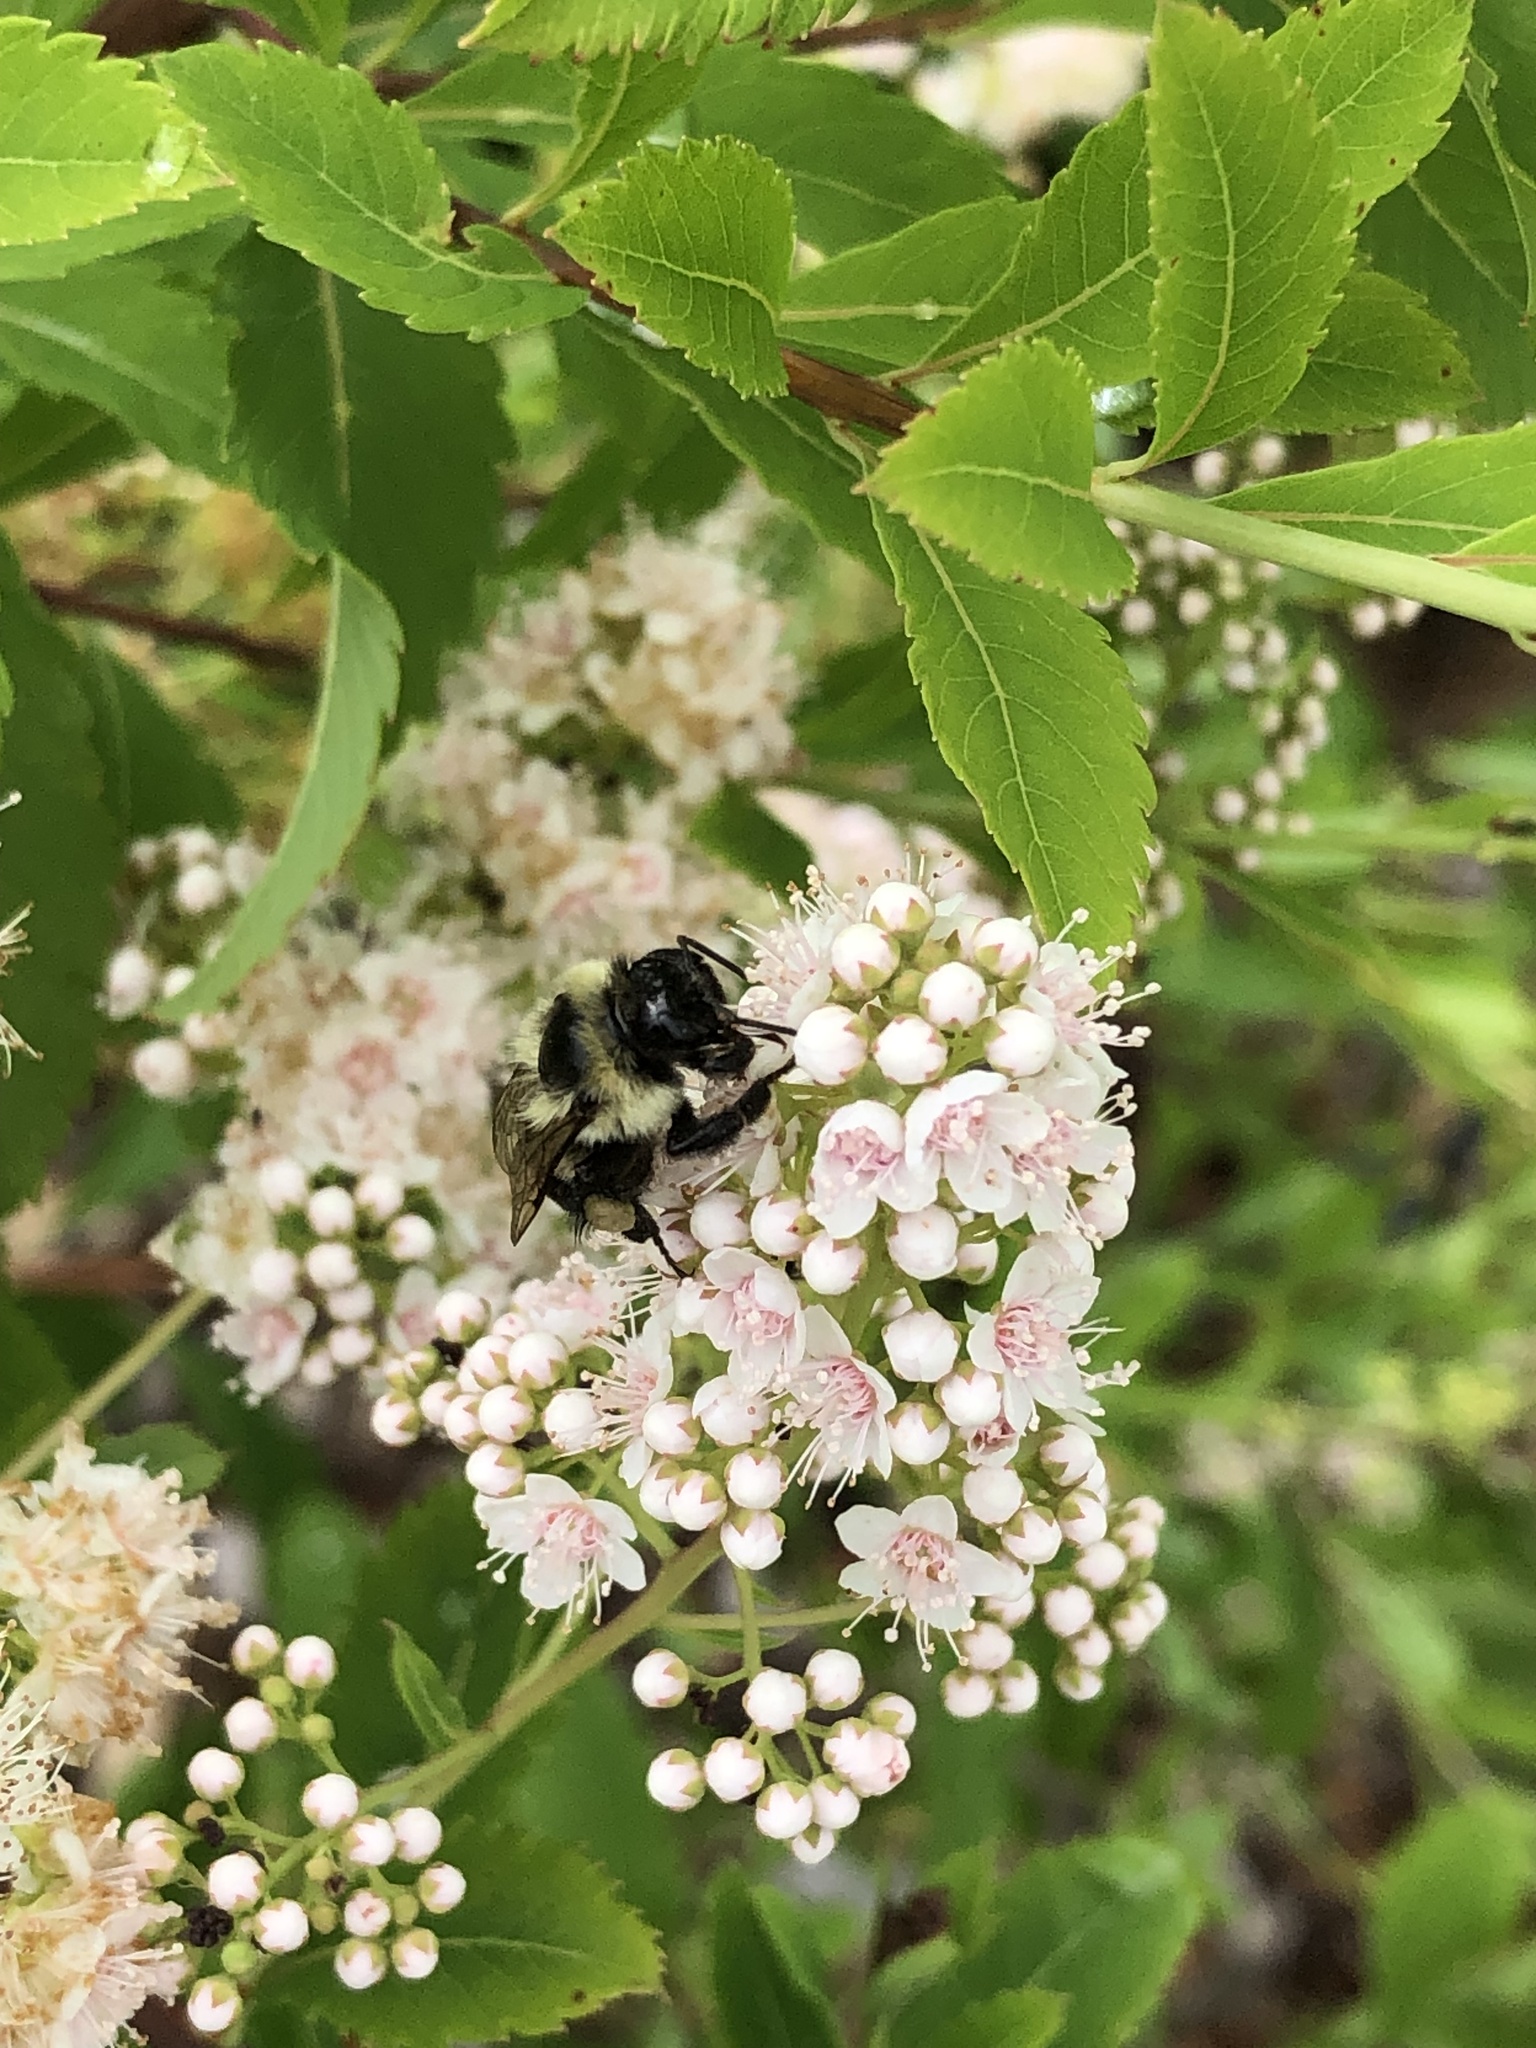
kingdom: Animalia
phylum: Arthropoda
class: Insecta
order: Hymenoptera
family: Apidae
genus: Bombus
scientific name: Bombus impatiens
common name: Common eastern bumble bee
